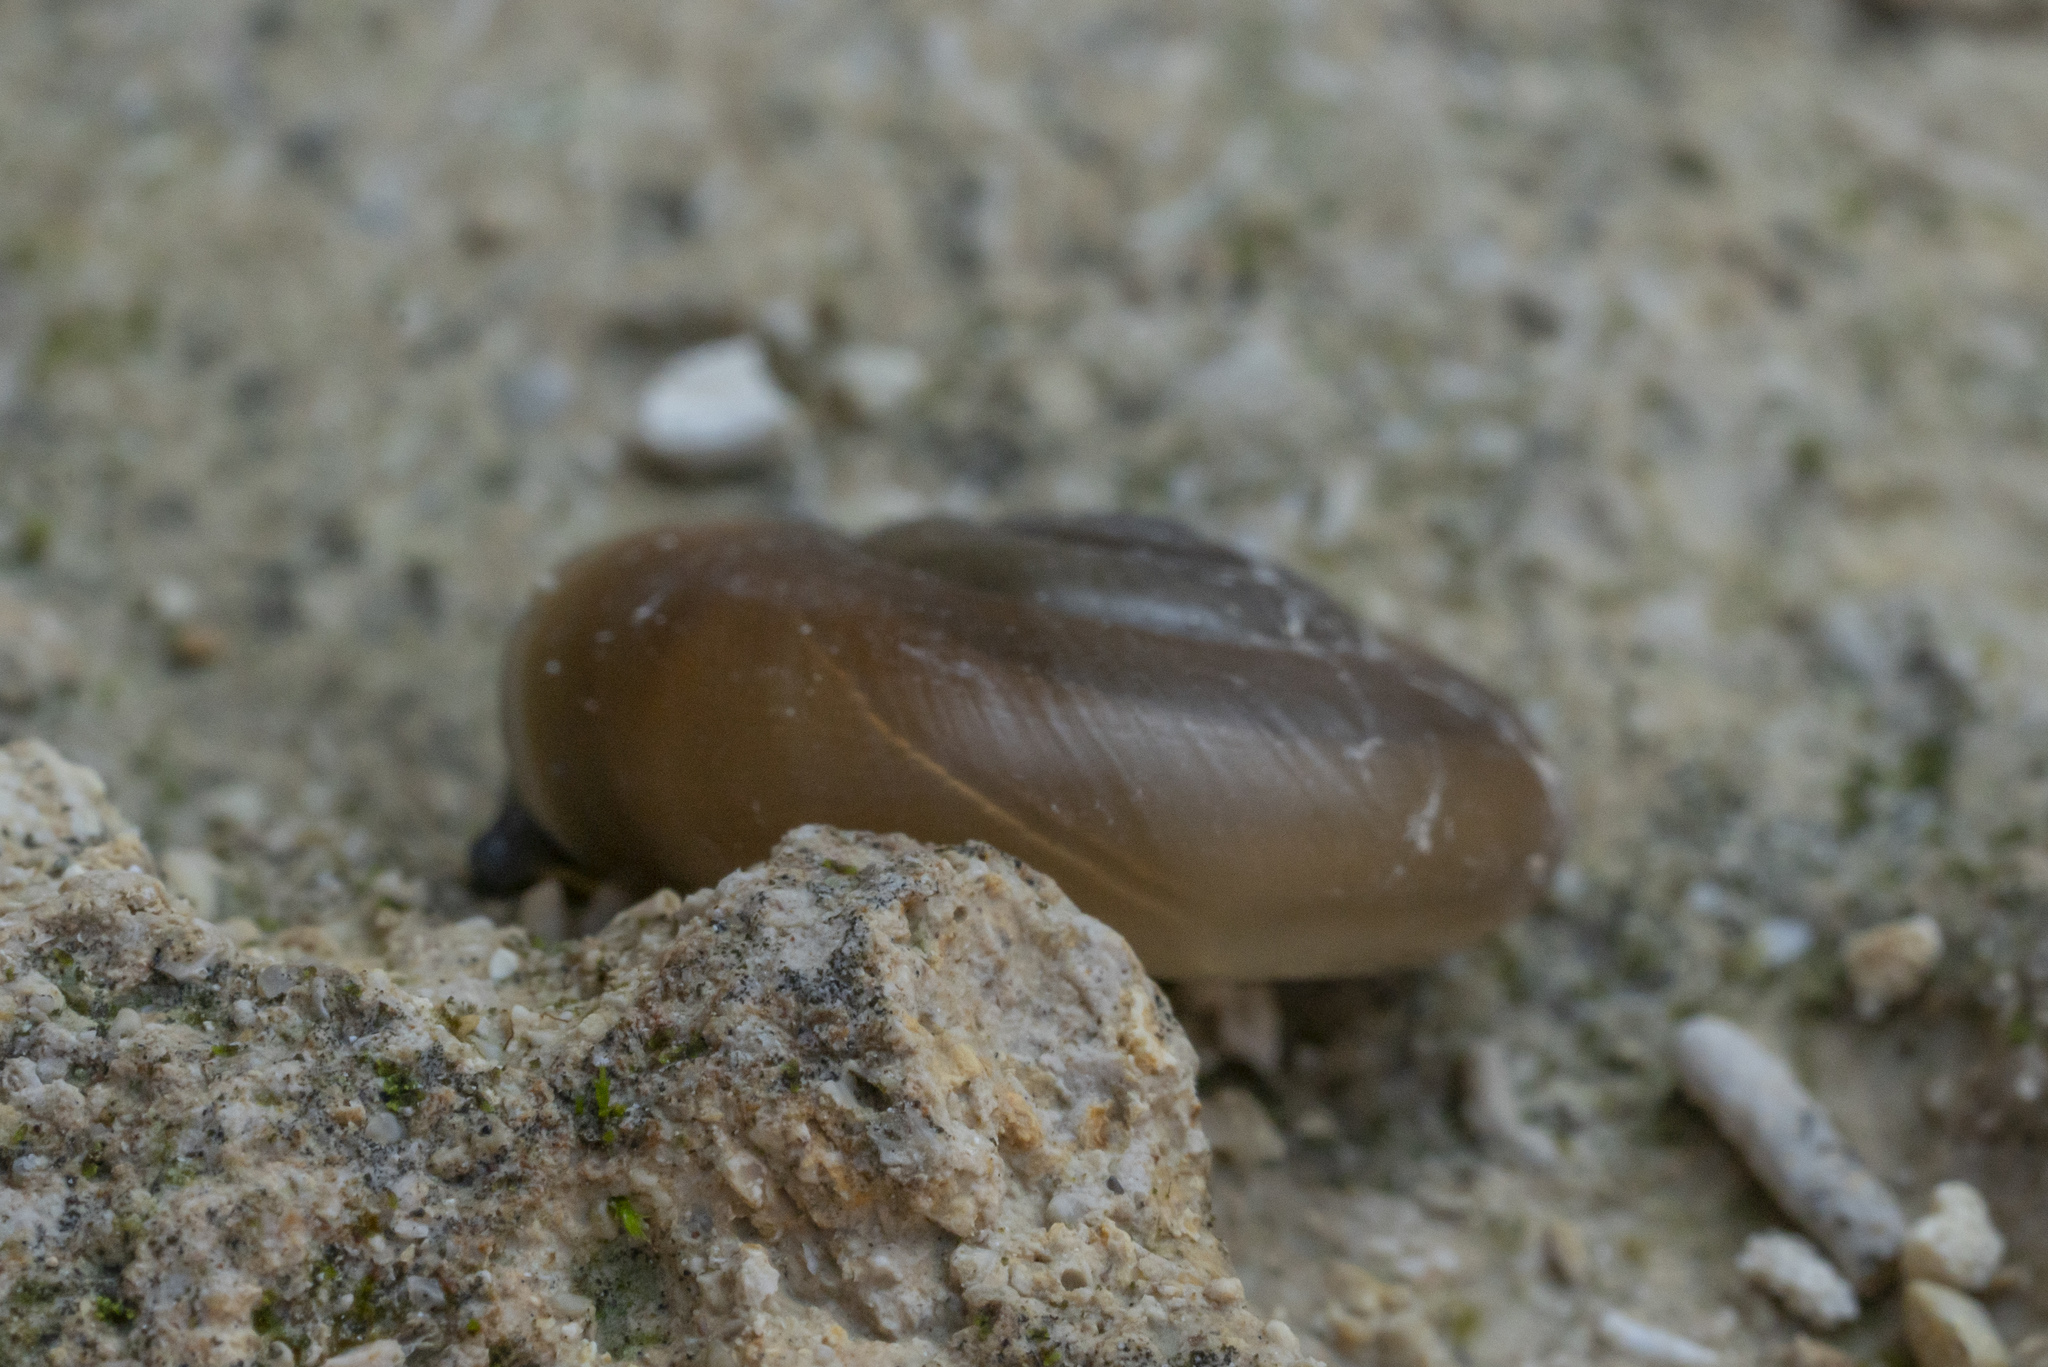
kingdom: Animalia
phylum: Mollusca
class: Gastropoda
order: Stylommatophora
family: Oxychilidae
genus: Eopolita
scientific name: Eopolita protensa
